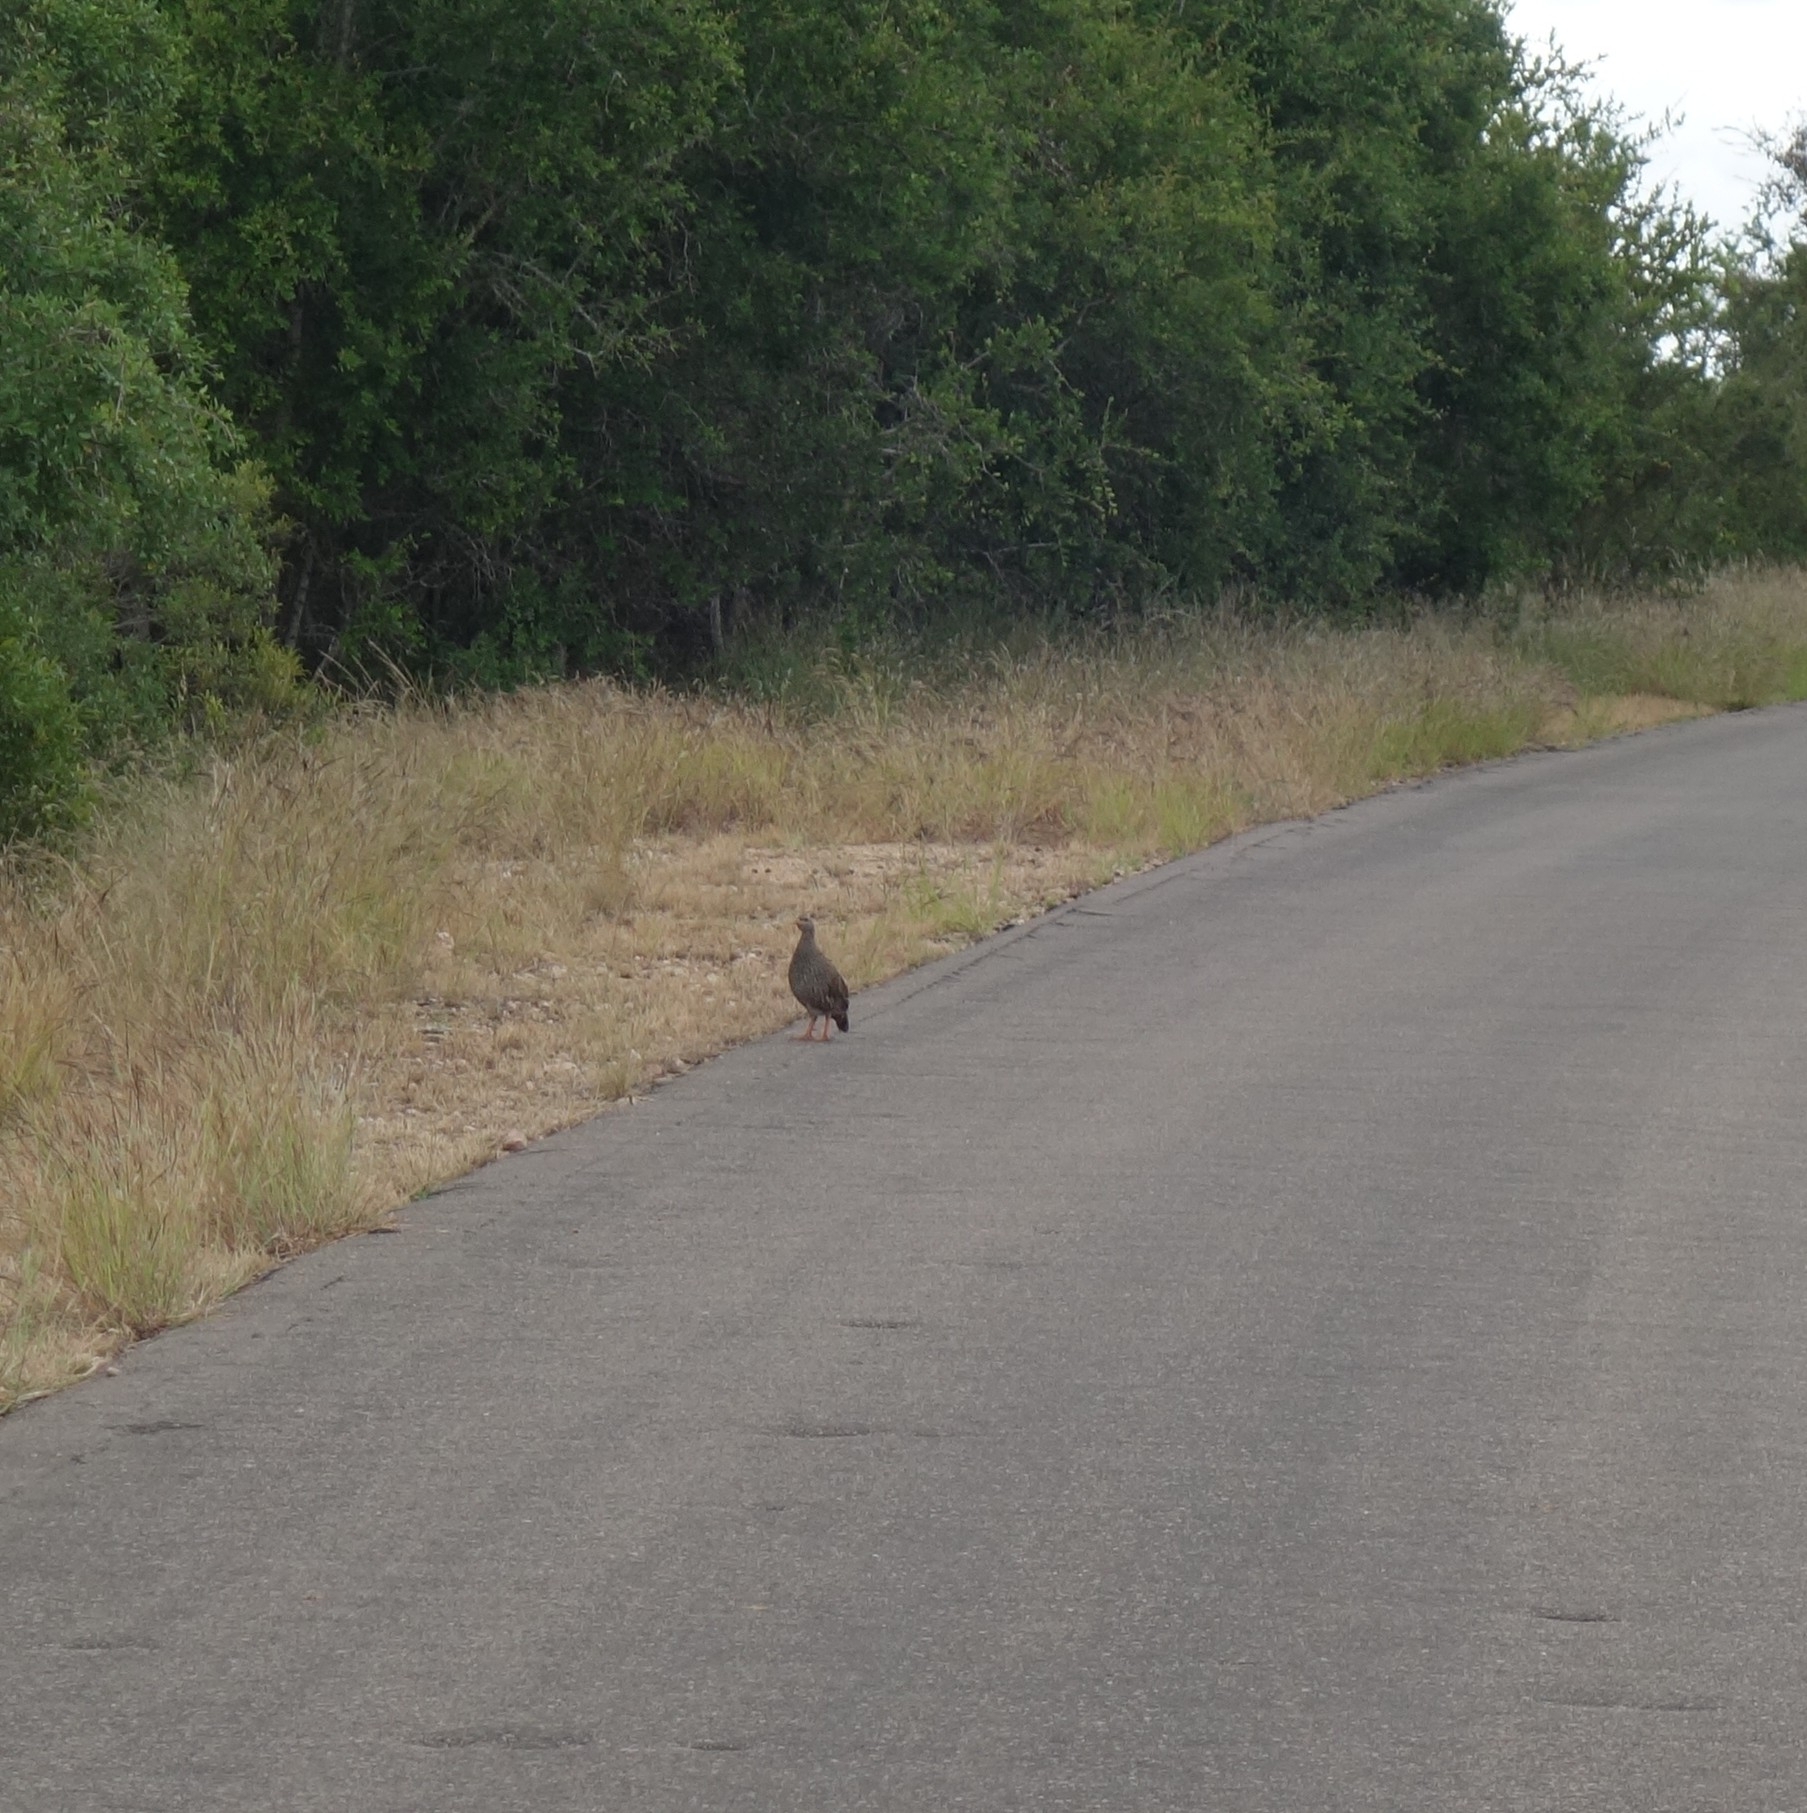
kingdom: Animalia
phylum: Chordata
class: Aves
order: Galliformes
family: Phasianidae
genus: Pternistis
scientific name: Pternistis natalensis
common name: Natal spurfowl
